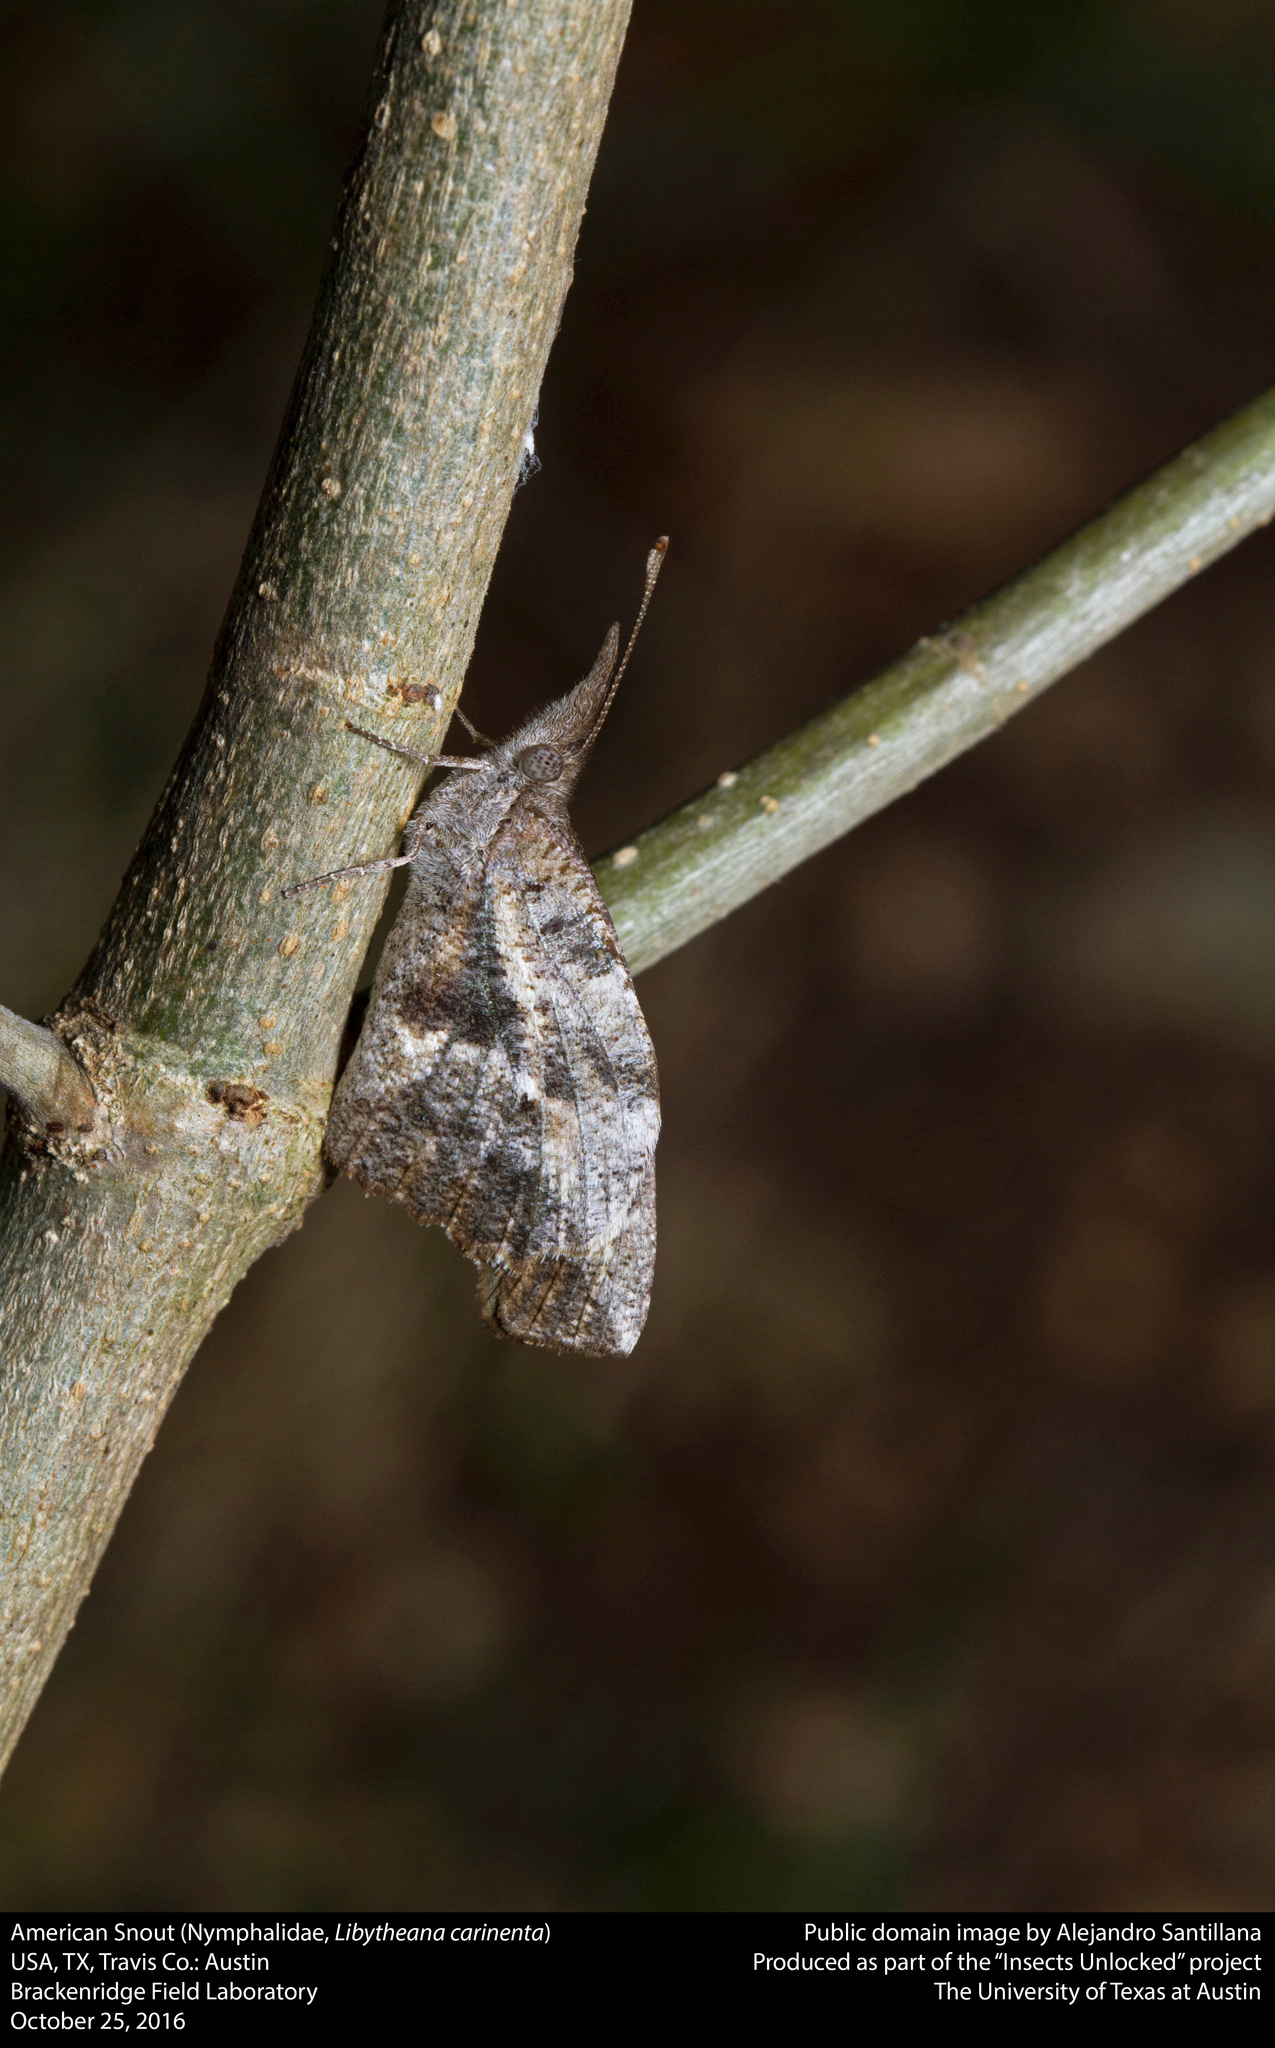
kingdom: Animalia
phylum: Arthropoda
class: Insecta
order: Lepidoptera
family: Nymphalidae
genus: Libytheana
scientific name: Libytheana carinenta
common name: American snout
